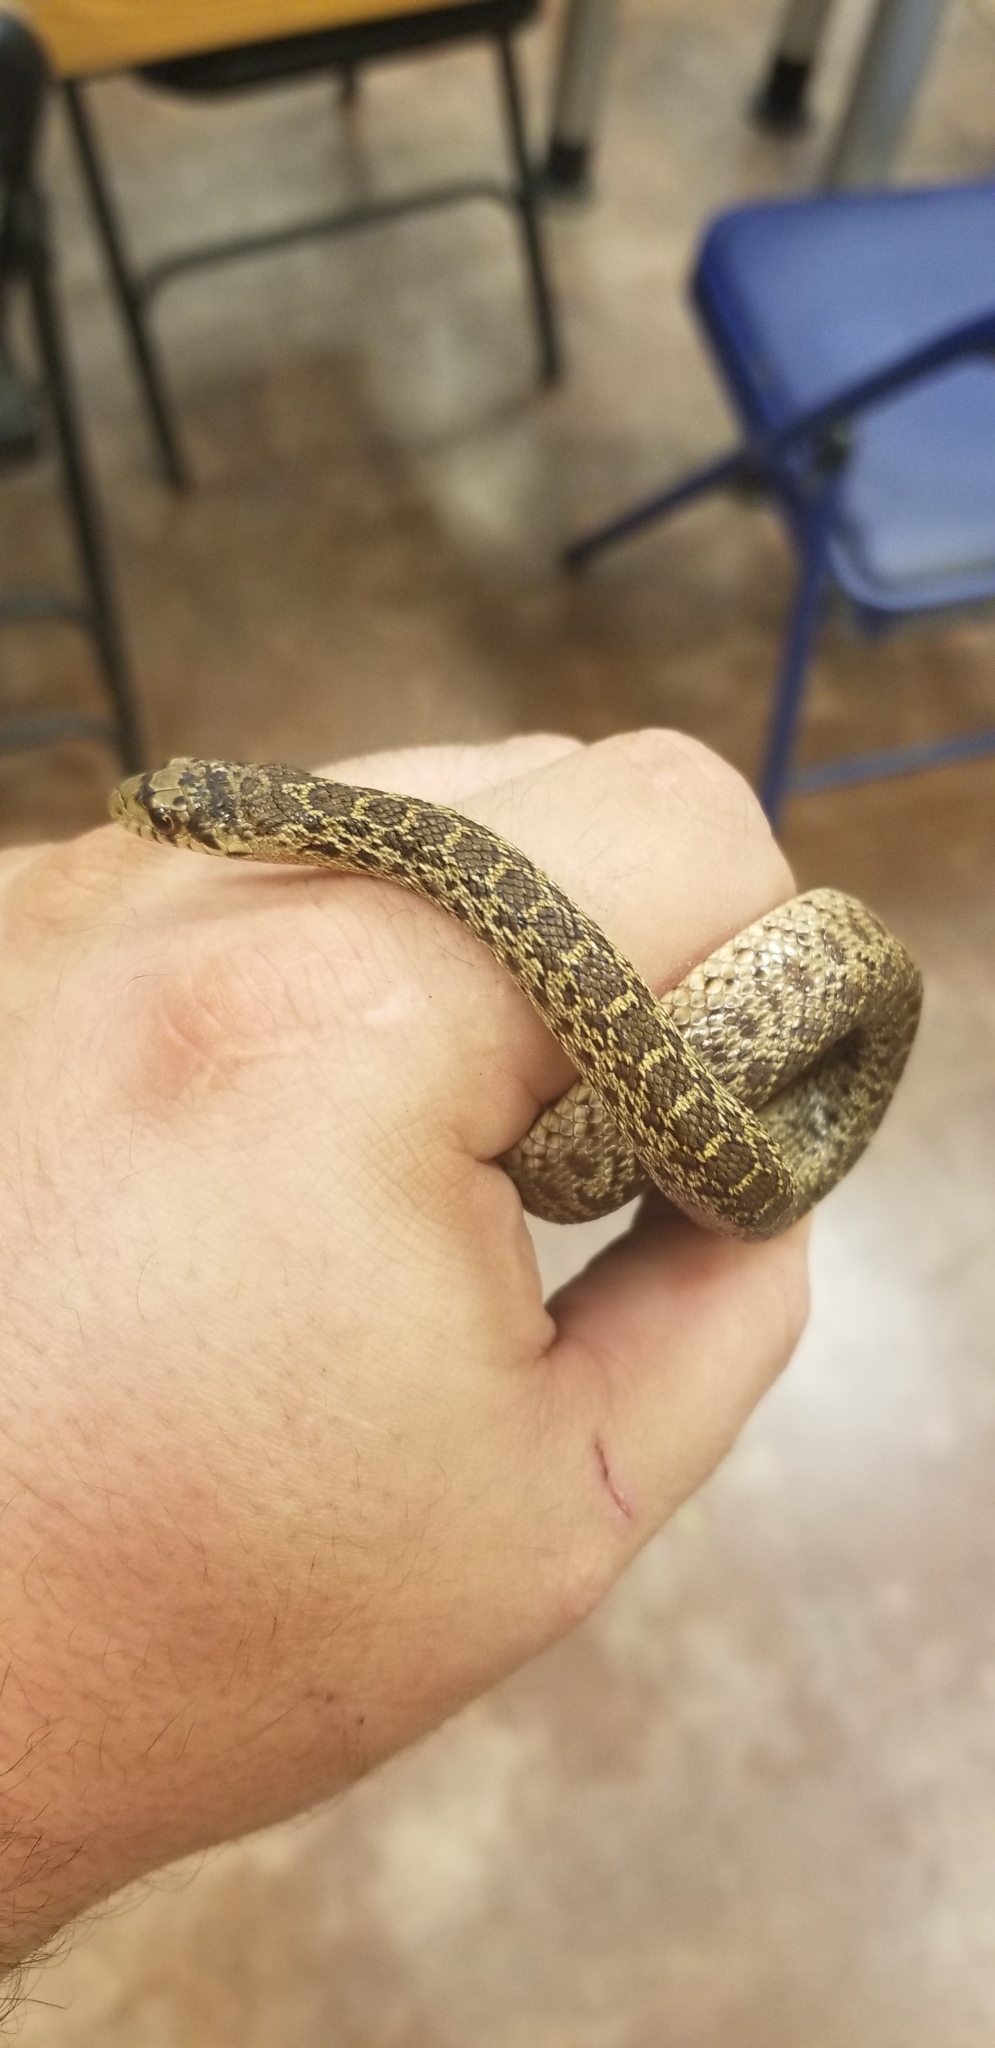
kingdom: Animalia
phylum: Chordata
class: Squamata
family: Colubridae
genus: Pituophis
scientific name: Pituophis catenifer
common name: Gopher snake
